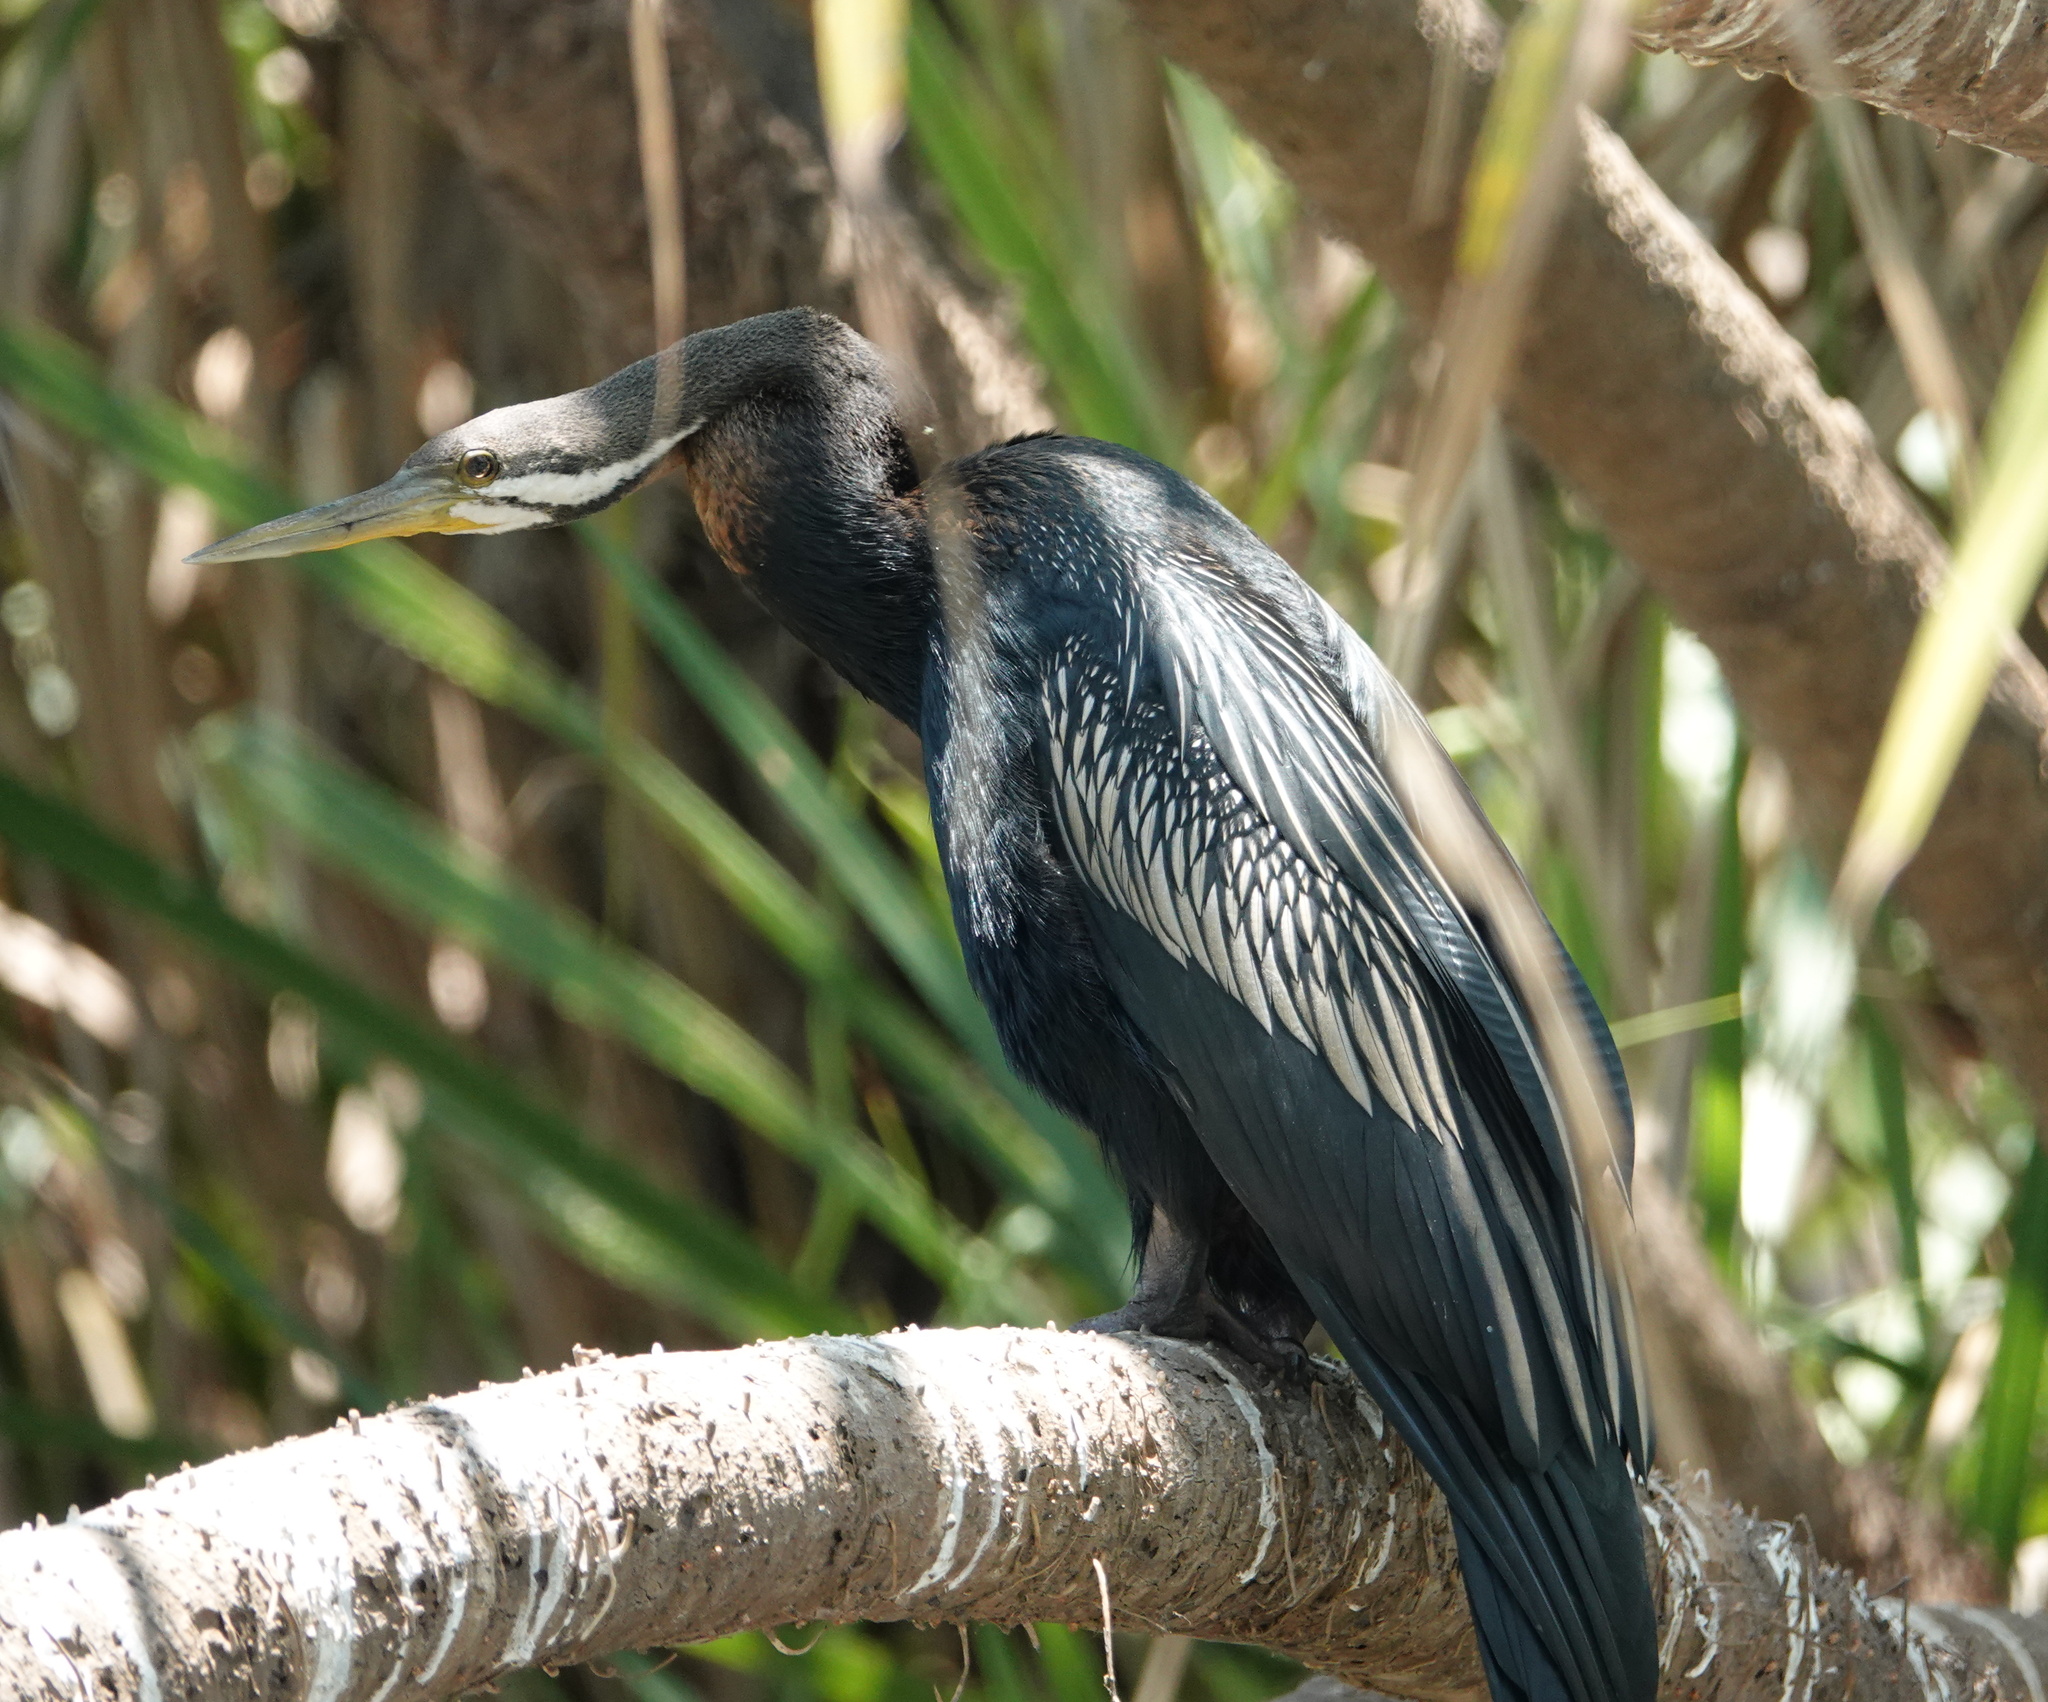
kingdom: Animalia
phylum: Chordata
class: Aves
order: Suliformes
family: Anhingidae
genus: Anhinga
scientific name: Anhinga novaehollandiae
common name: Australasian darter
